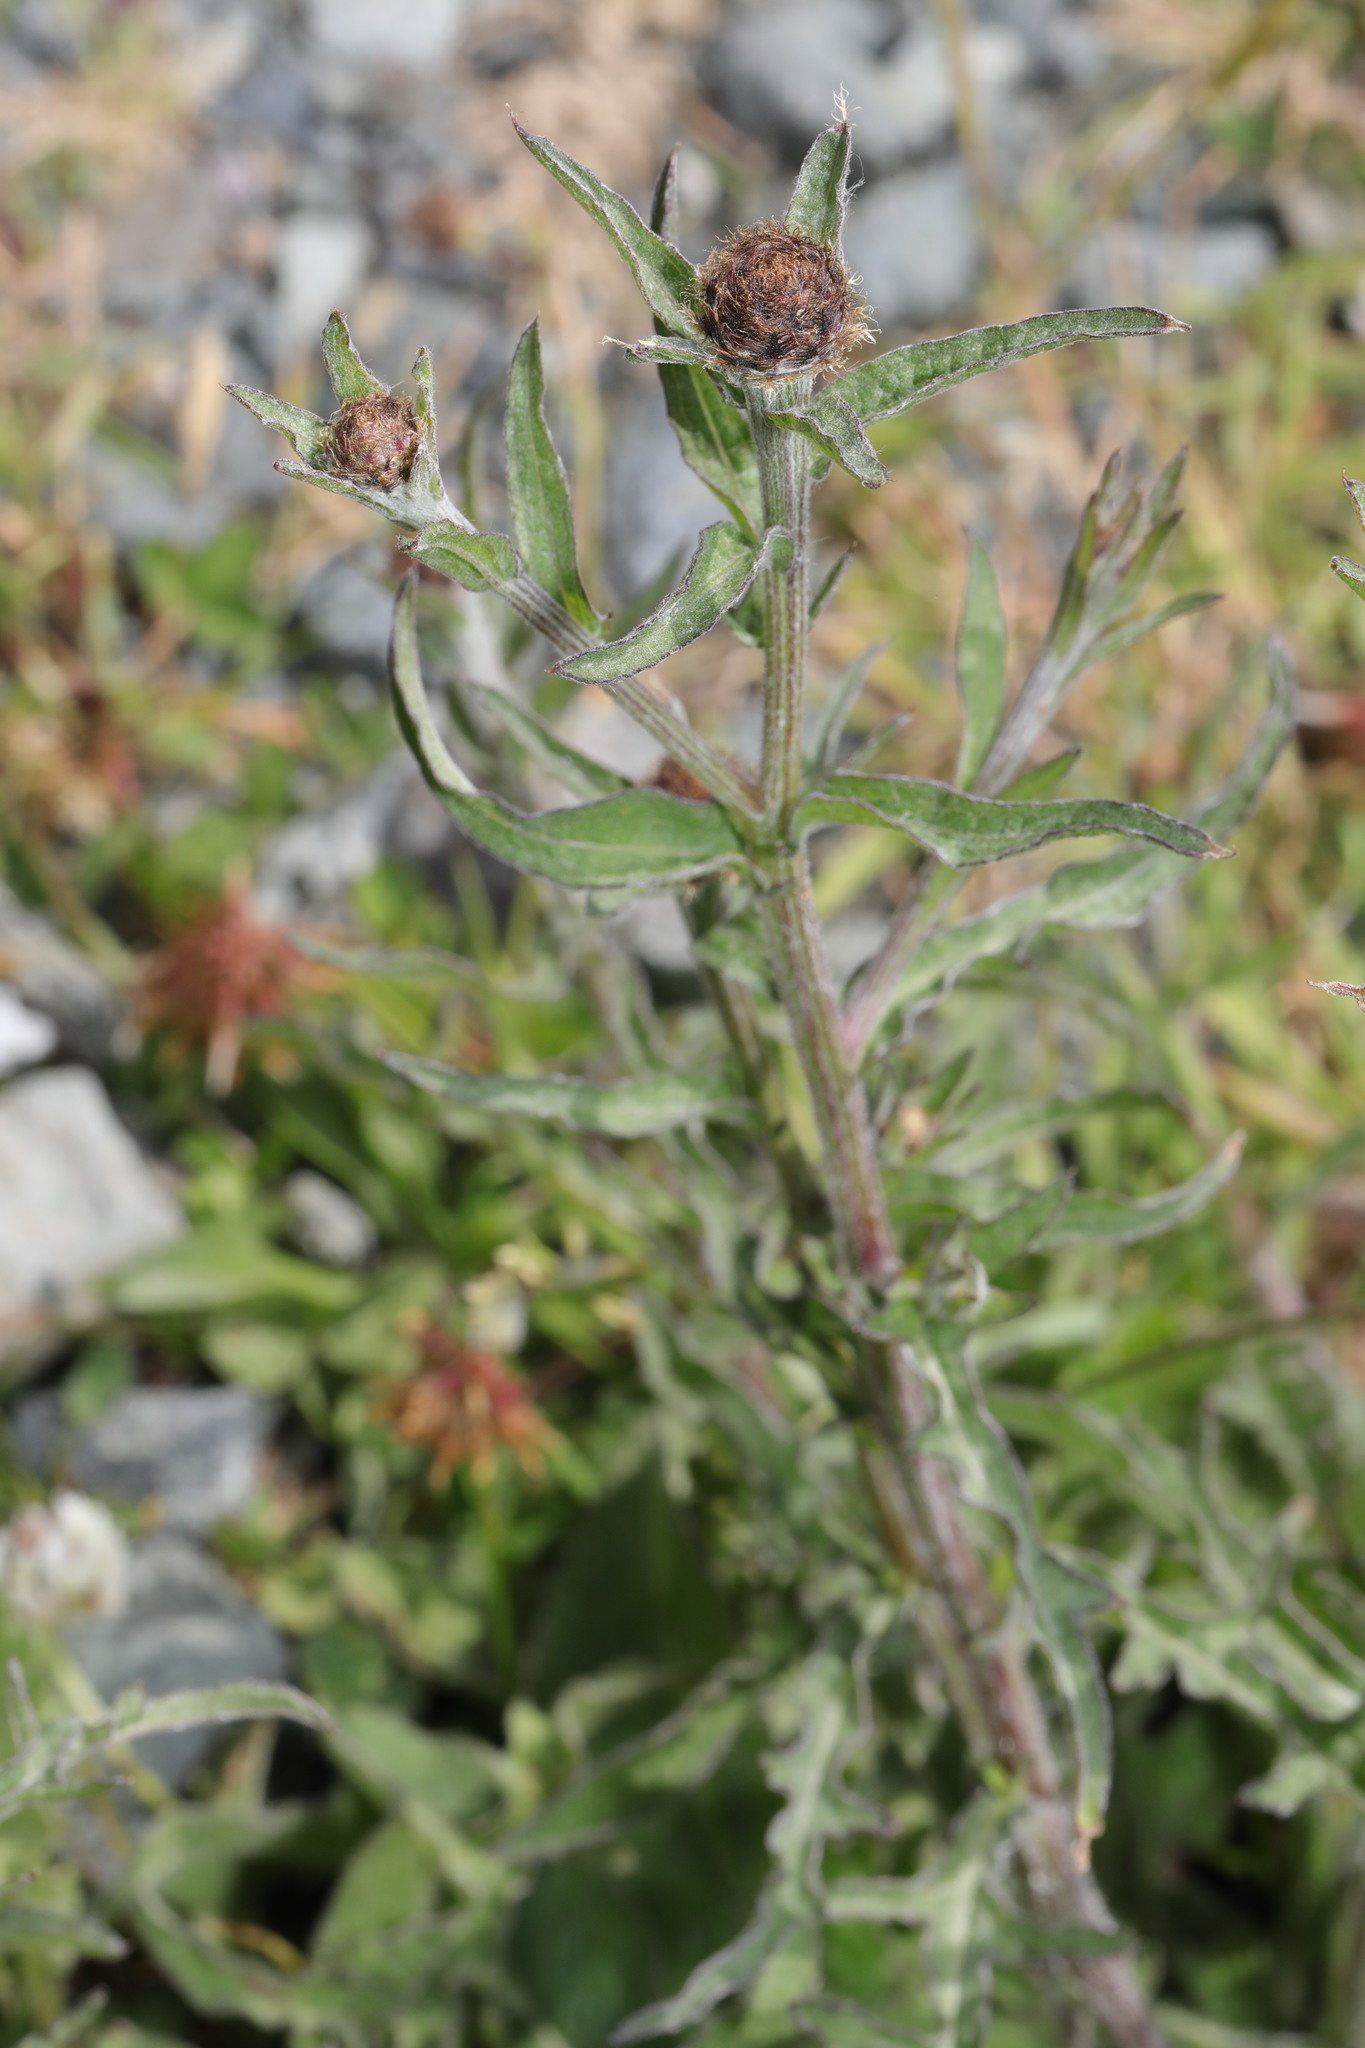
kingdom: Plantae
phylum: Tracheophyta
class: Magnoliopsida
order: Asterales
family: Asteraceae
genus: Centaurea
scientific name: Centaurea nigra
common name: Lesser knapweed
